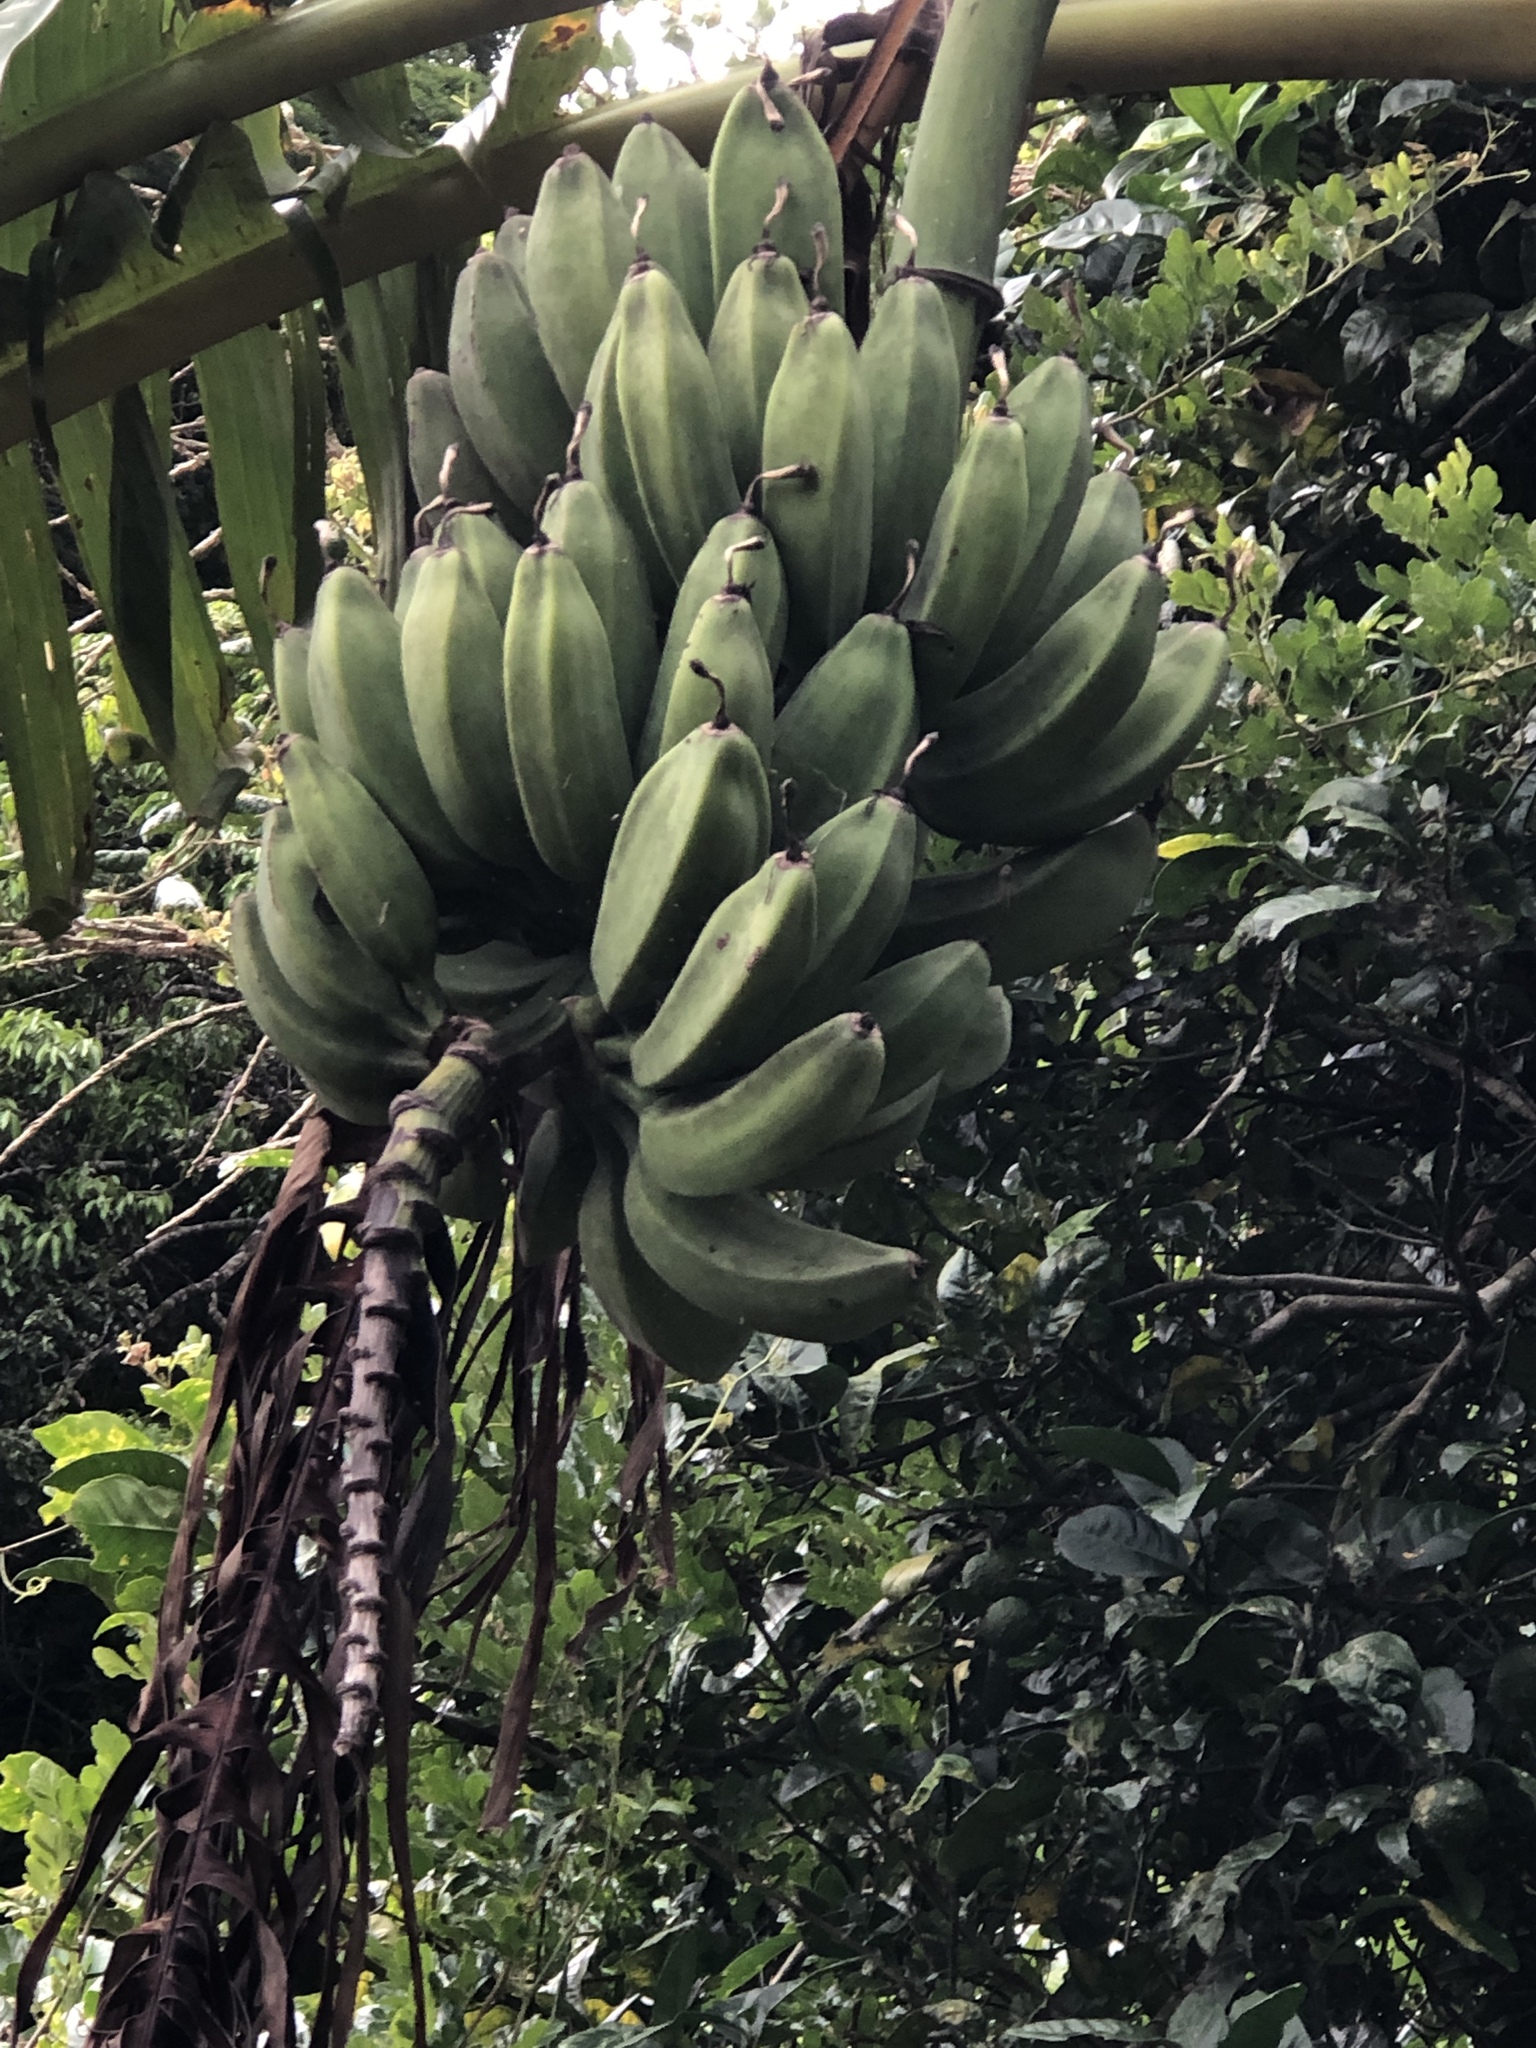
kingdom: Plantae
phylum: Tracheophyta
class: Liliopsida
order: Zingiberales
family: Musaceae
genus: Musa
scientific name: Musa paradisiaca
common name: French plantain
